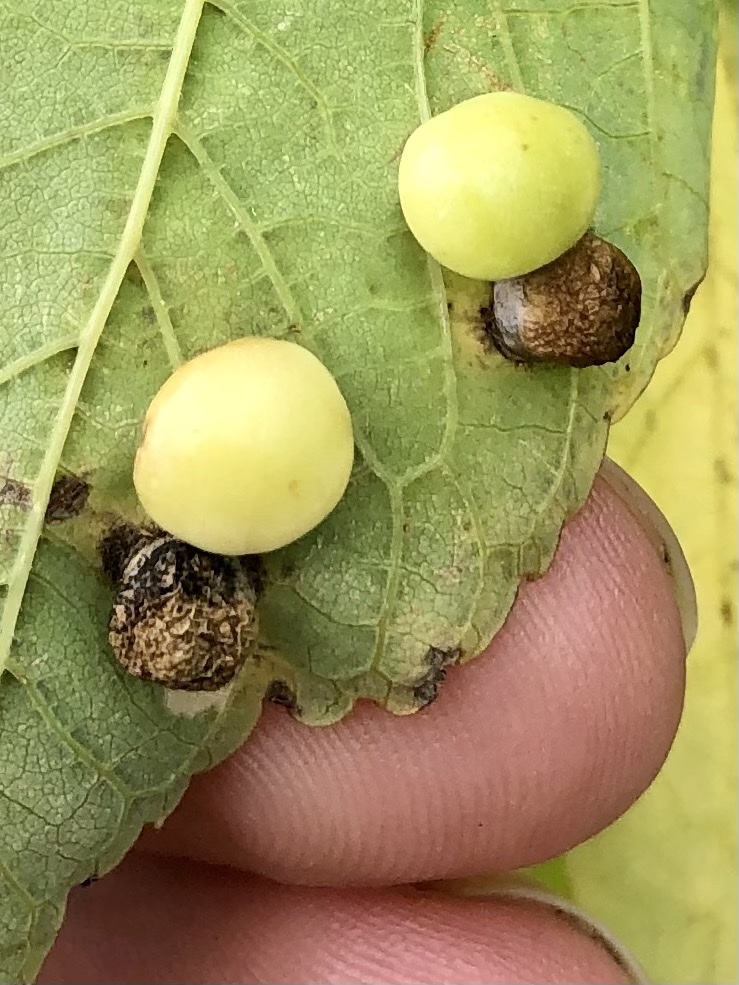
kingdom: Animalia
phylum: Arthropoda
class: Insecta
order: Hemiptera
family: Aphalaridae
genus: Pachypsylla
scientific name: Pachypsylla celtidismamma
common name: Hackberry nipplegall psyllid
